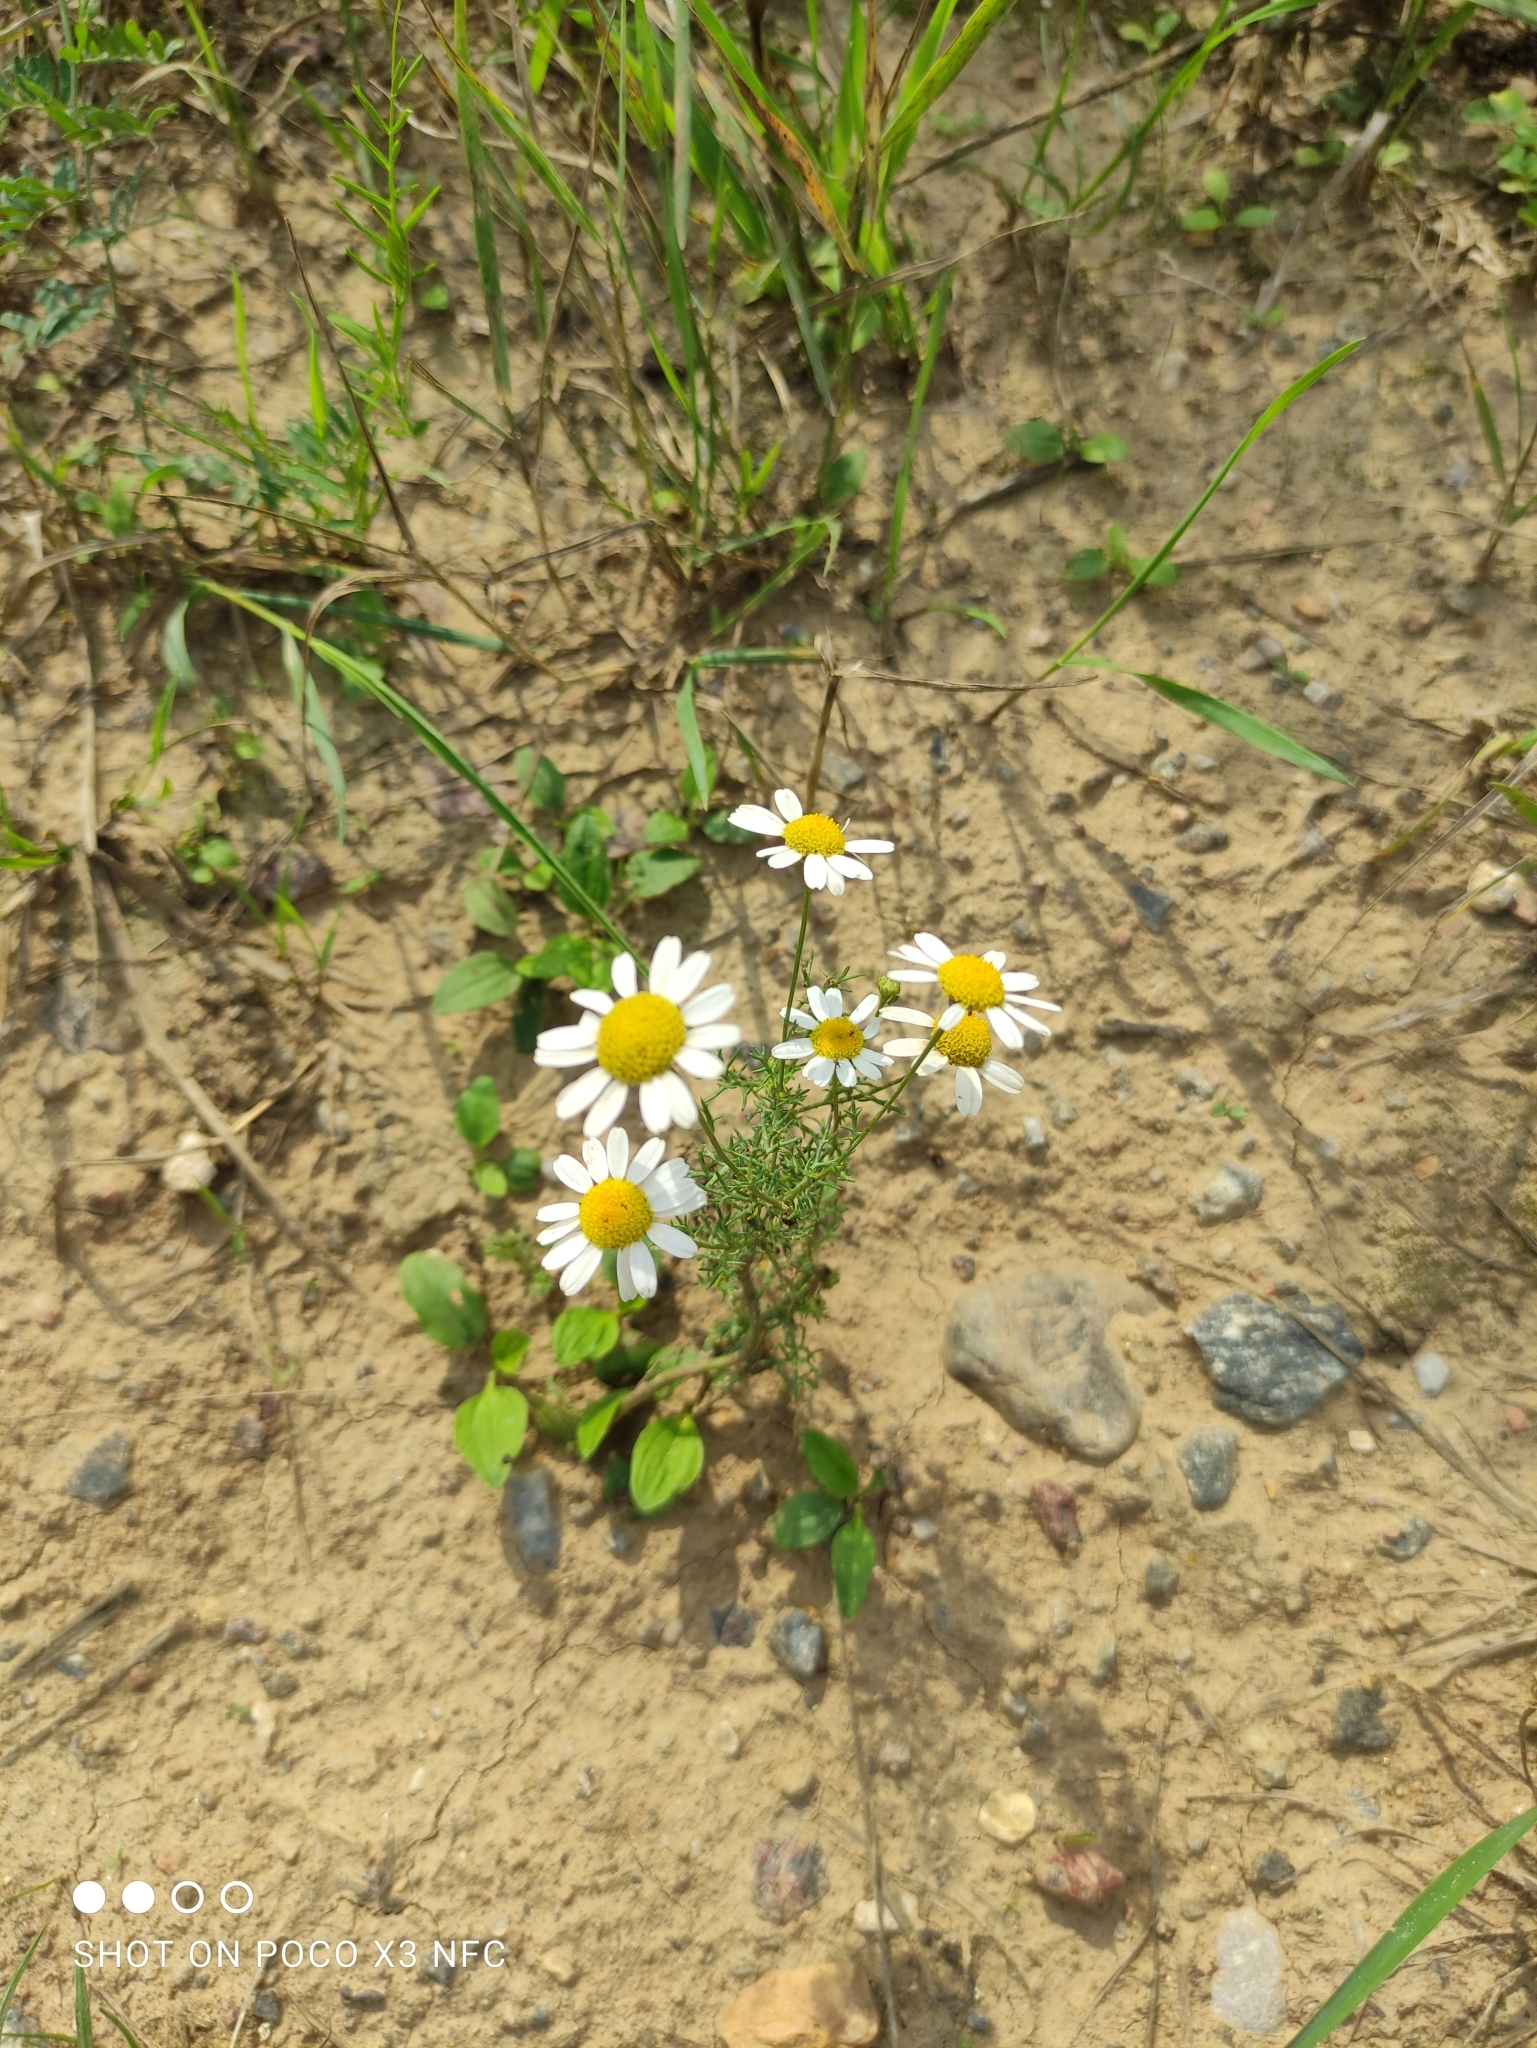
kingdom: Plantae
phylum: Tracheophyta
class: Magnoliopsida
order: Asterales
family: Asteraceae
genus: Tripleurospermum
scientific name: Tripleurospermum inodorum
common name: Scentless mayweed
